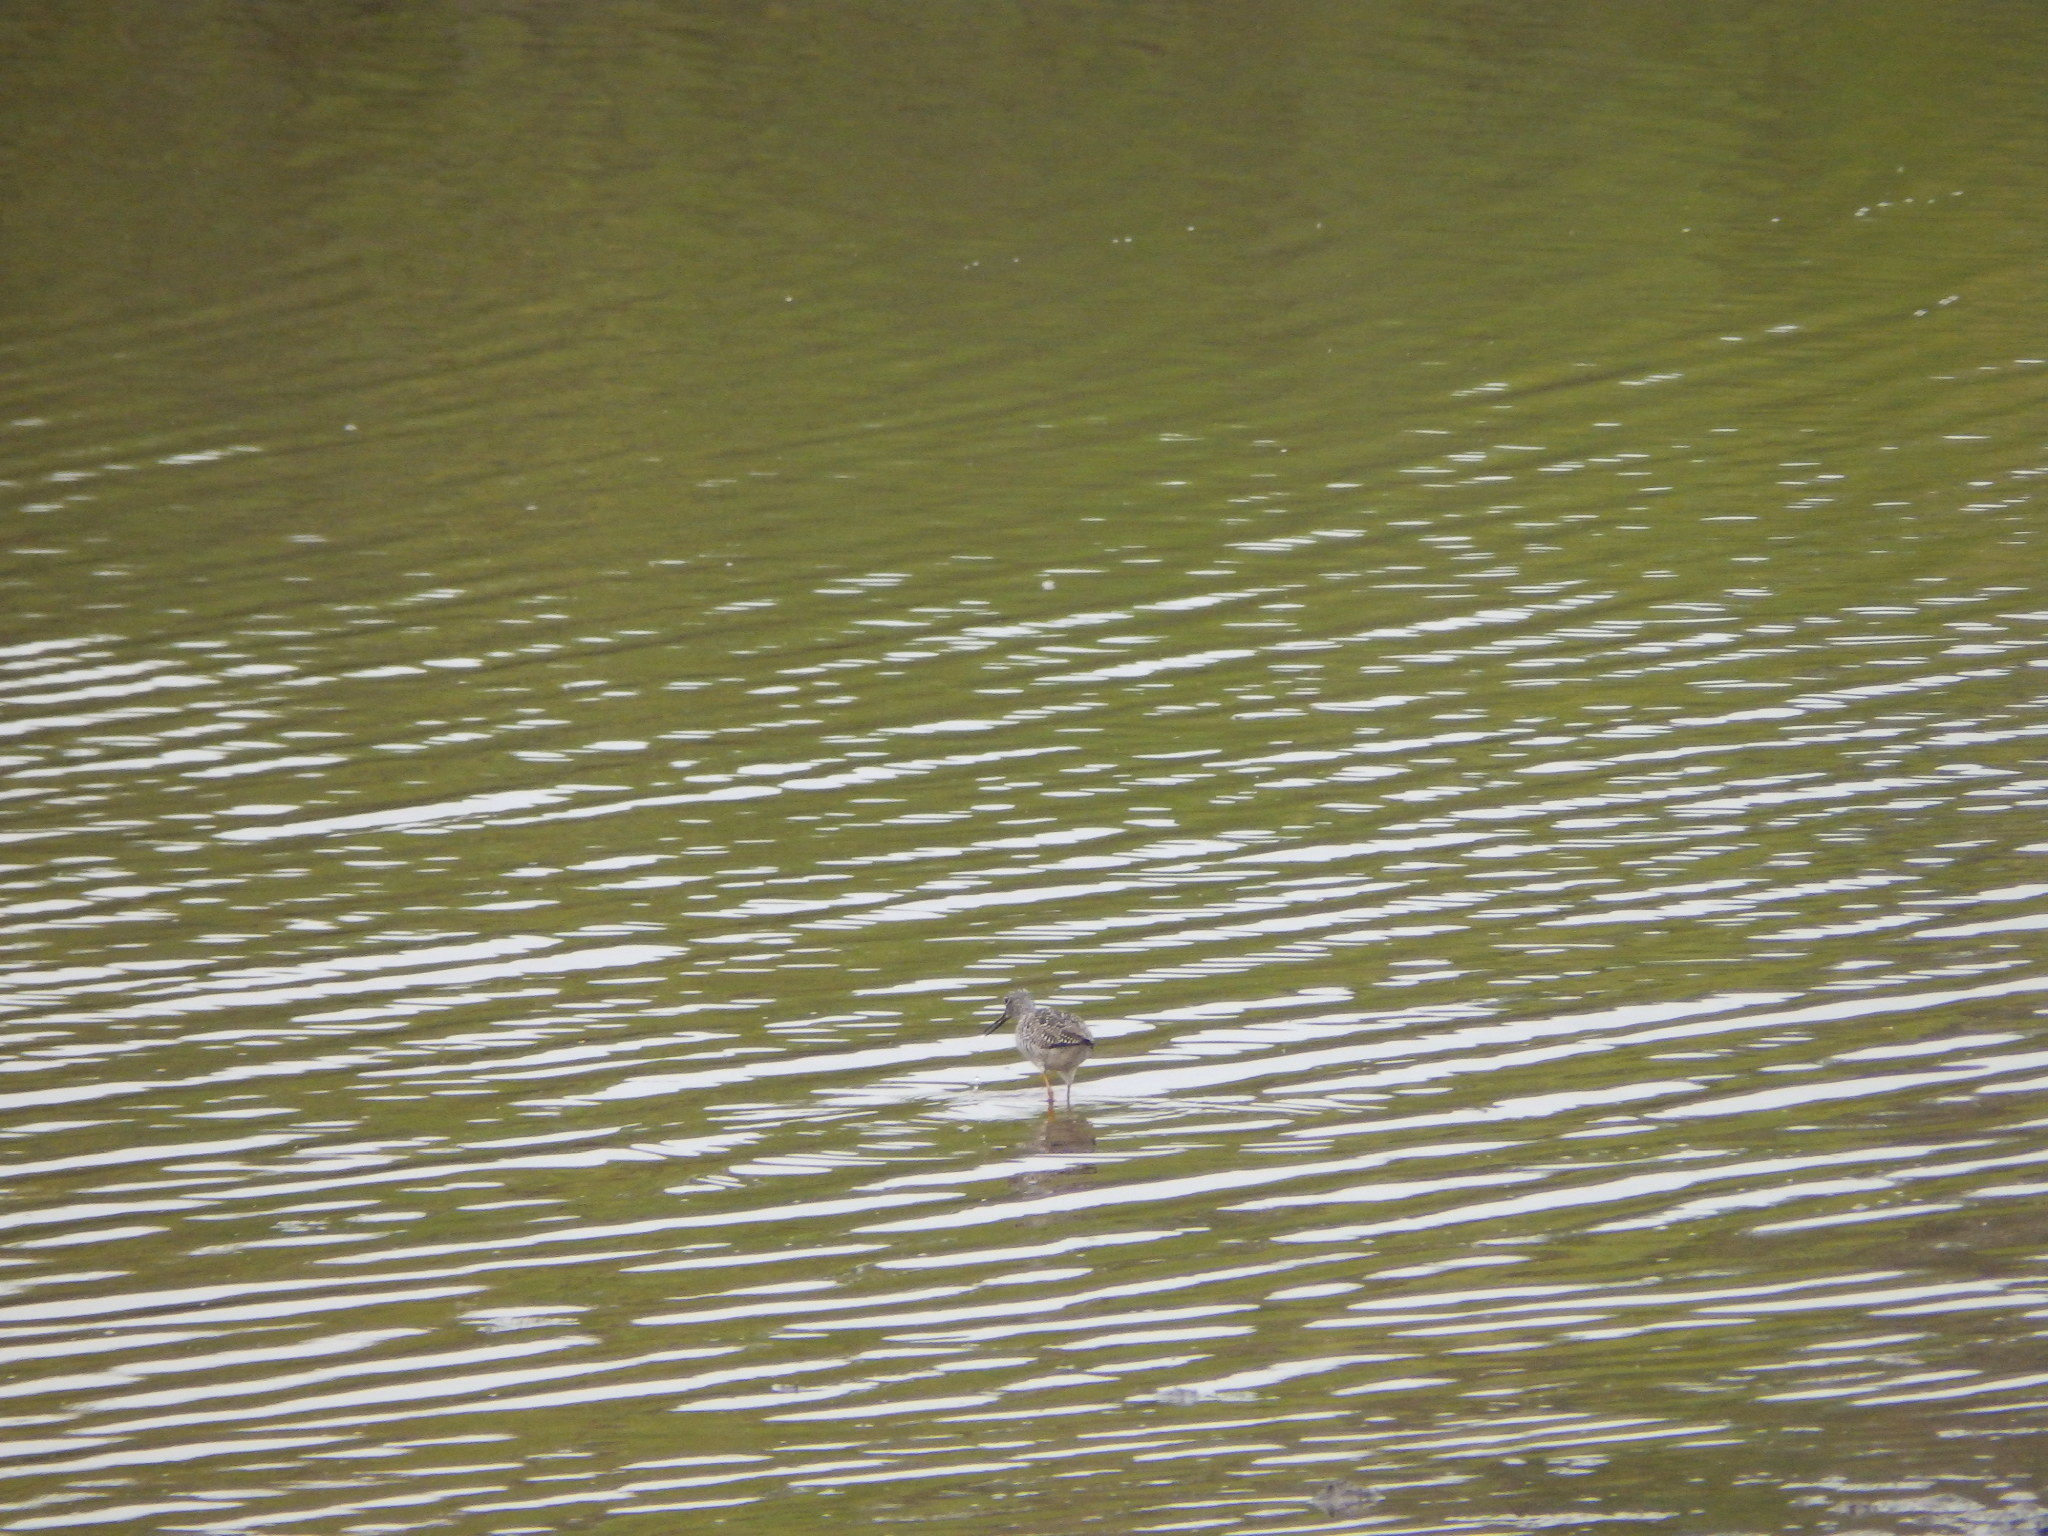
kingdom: Animalia
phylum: Chordata
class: Aves
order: Charadriiformes
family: Scolopacidae
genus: Tringa
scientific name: Tringa melanoleuca
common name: Greater yellowlegs
